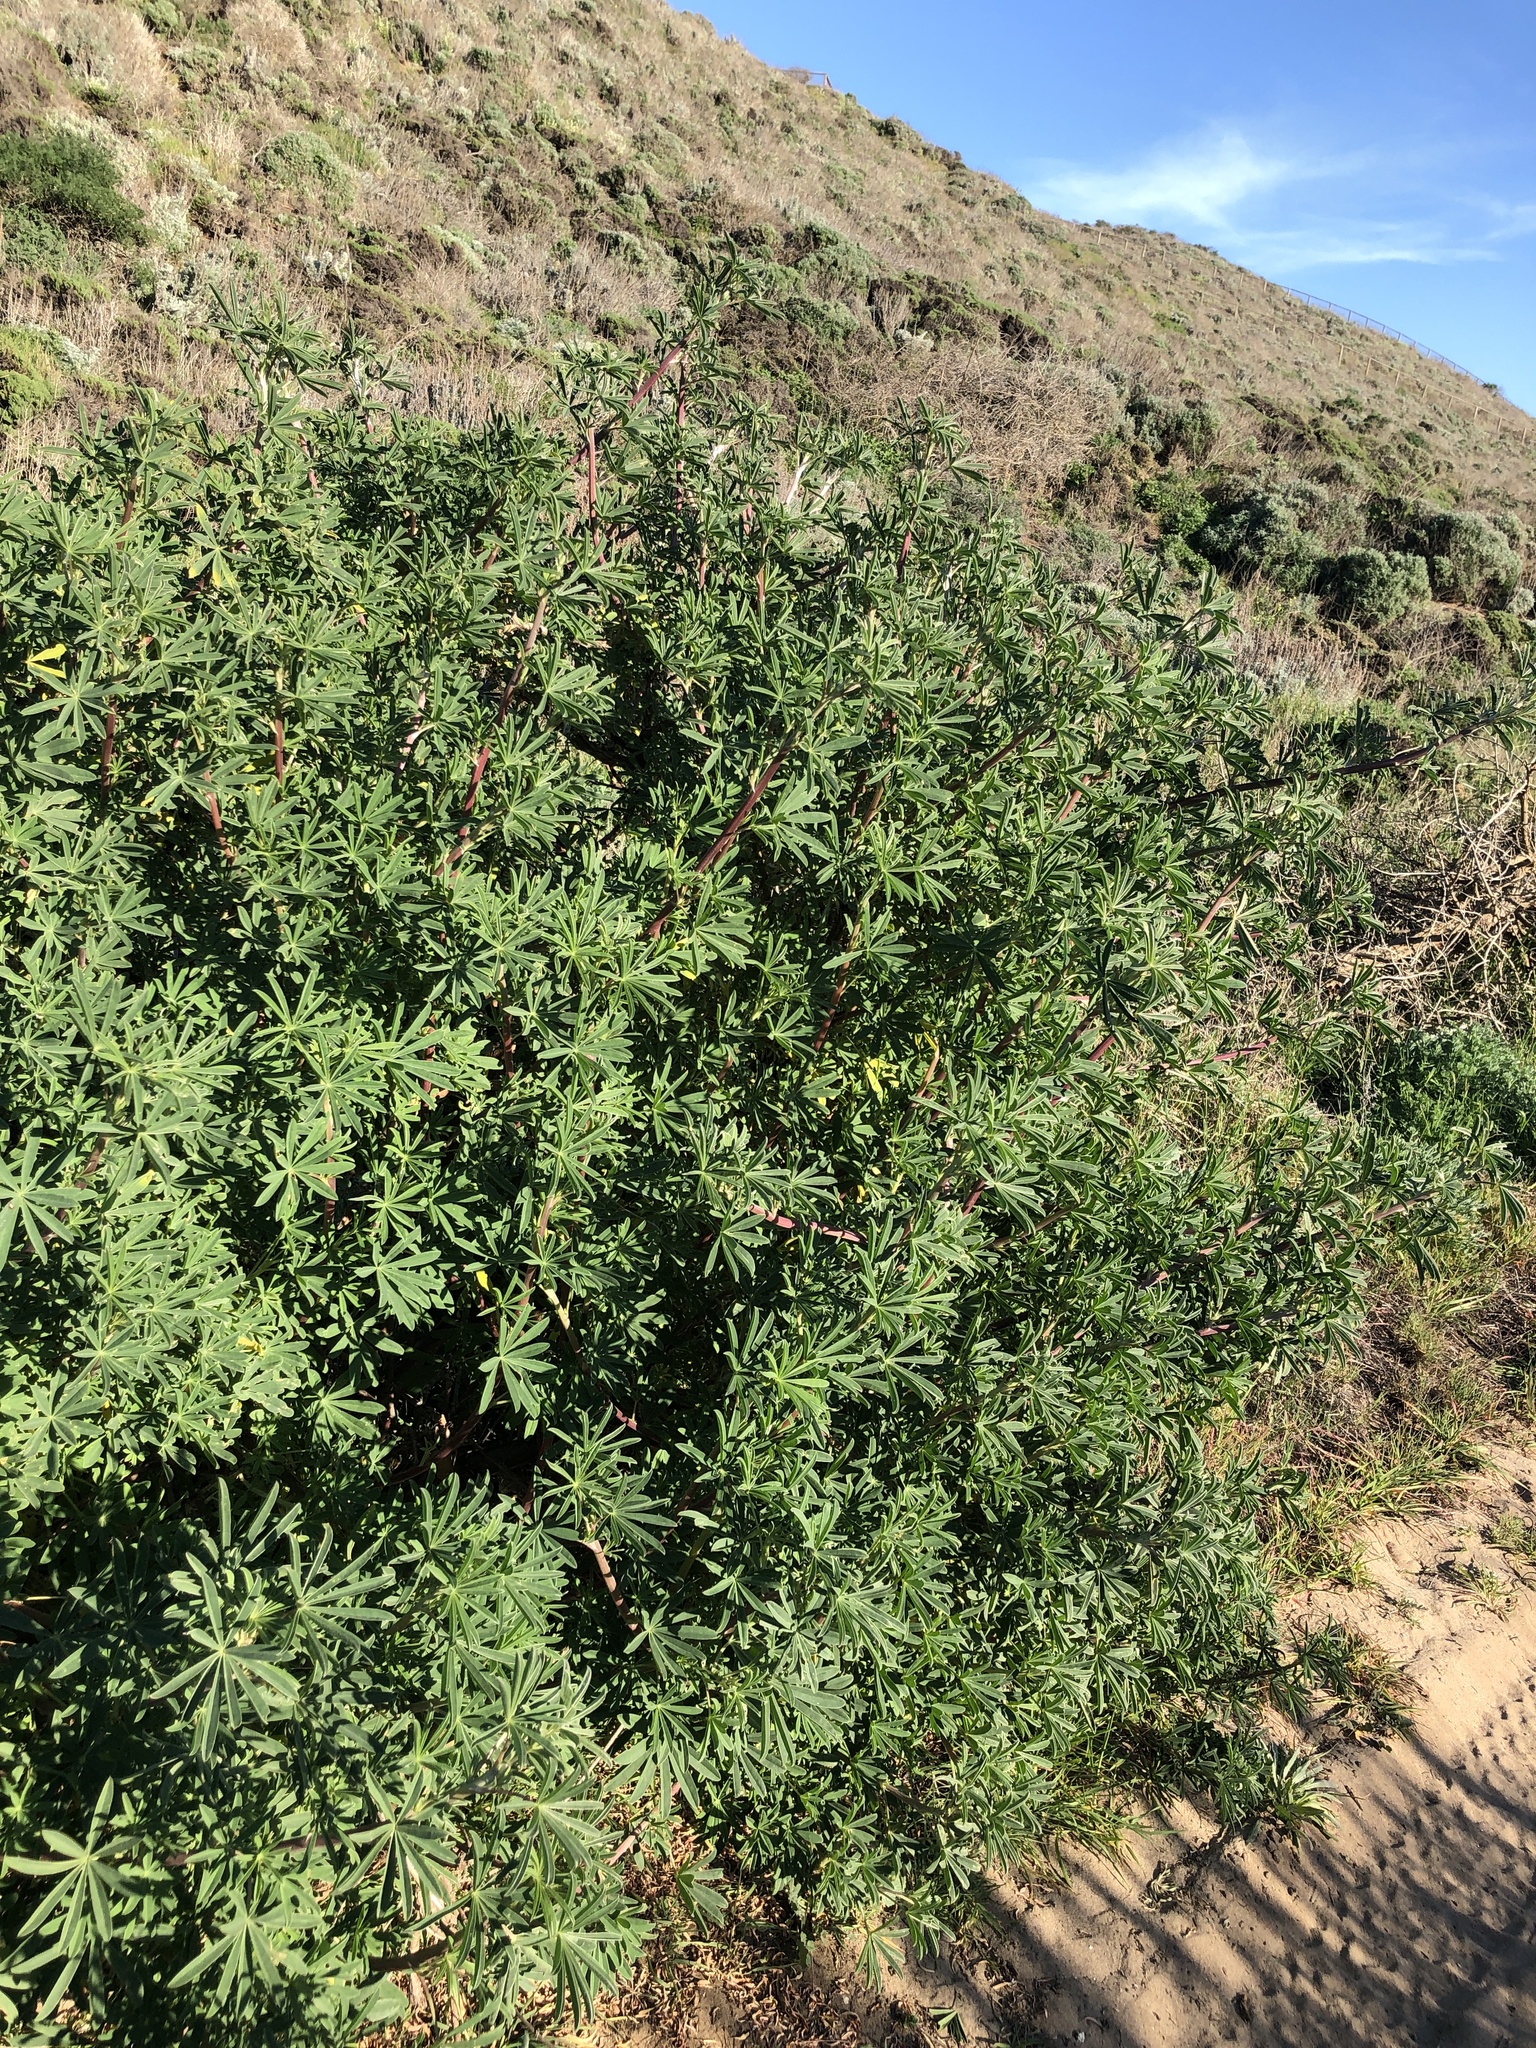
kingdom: Plantae
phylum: Tracheophyta
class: Magnoliopsida
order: Fabales
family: Fabaceae
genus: Lupinus
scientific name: Lupinus arboreus
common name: Yellow bush lupine
